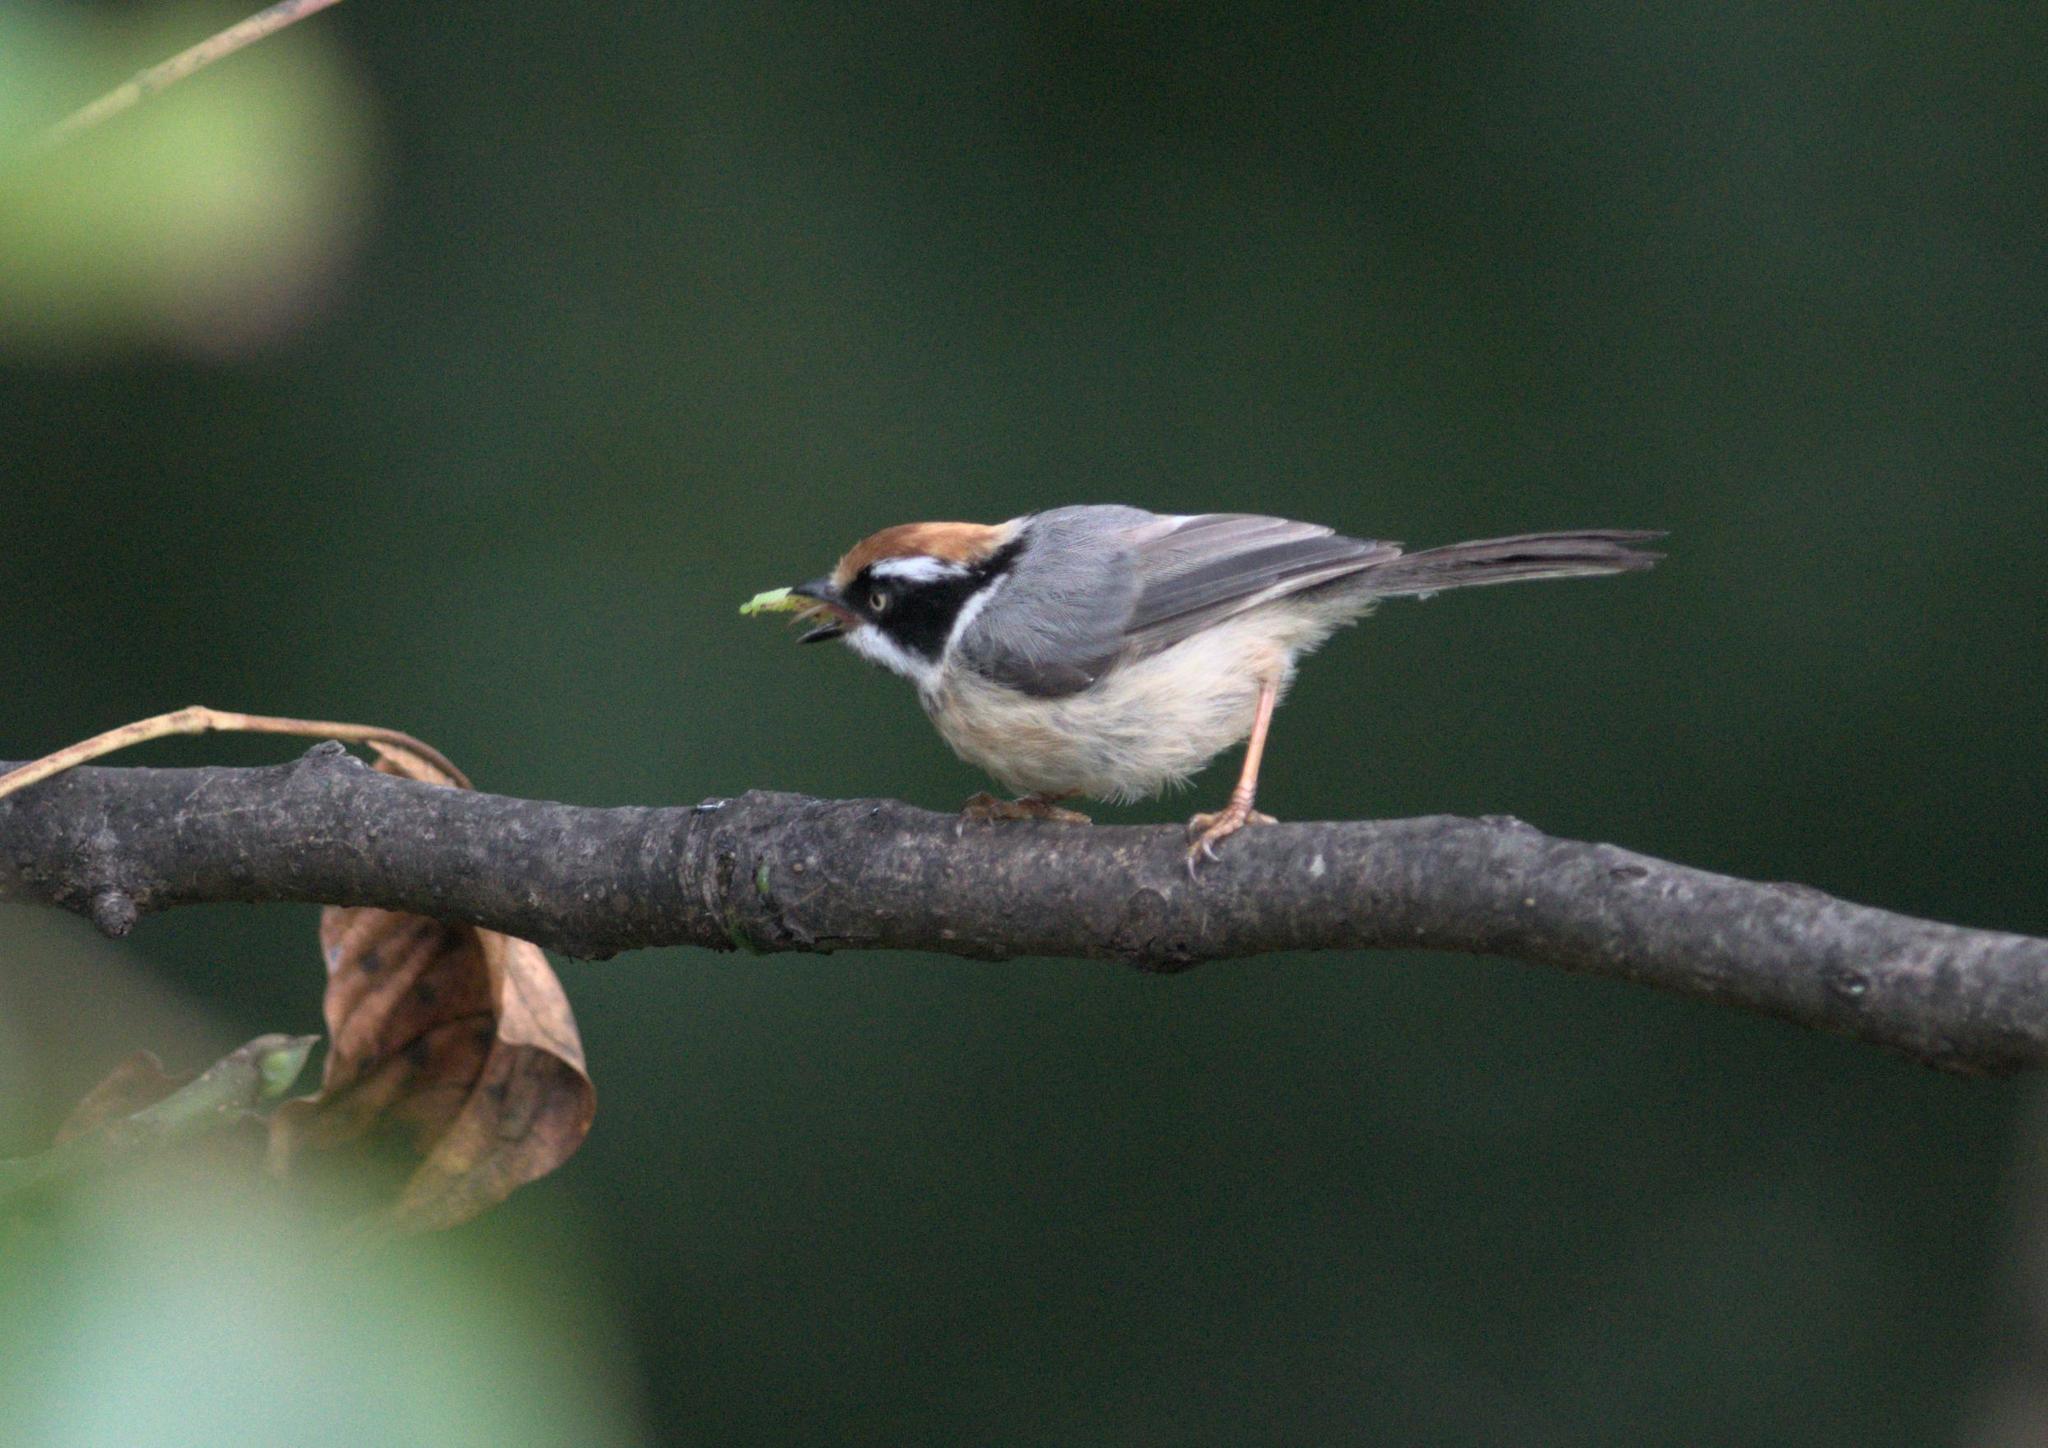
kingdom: Animalia
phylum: Chordata
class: Aves
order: Passeriformes
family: Aegithalidae
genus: Aegithalos
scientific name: Aegithalos concinnus
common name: Black-throated bushtit
